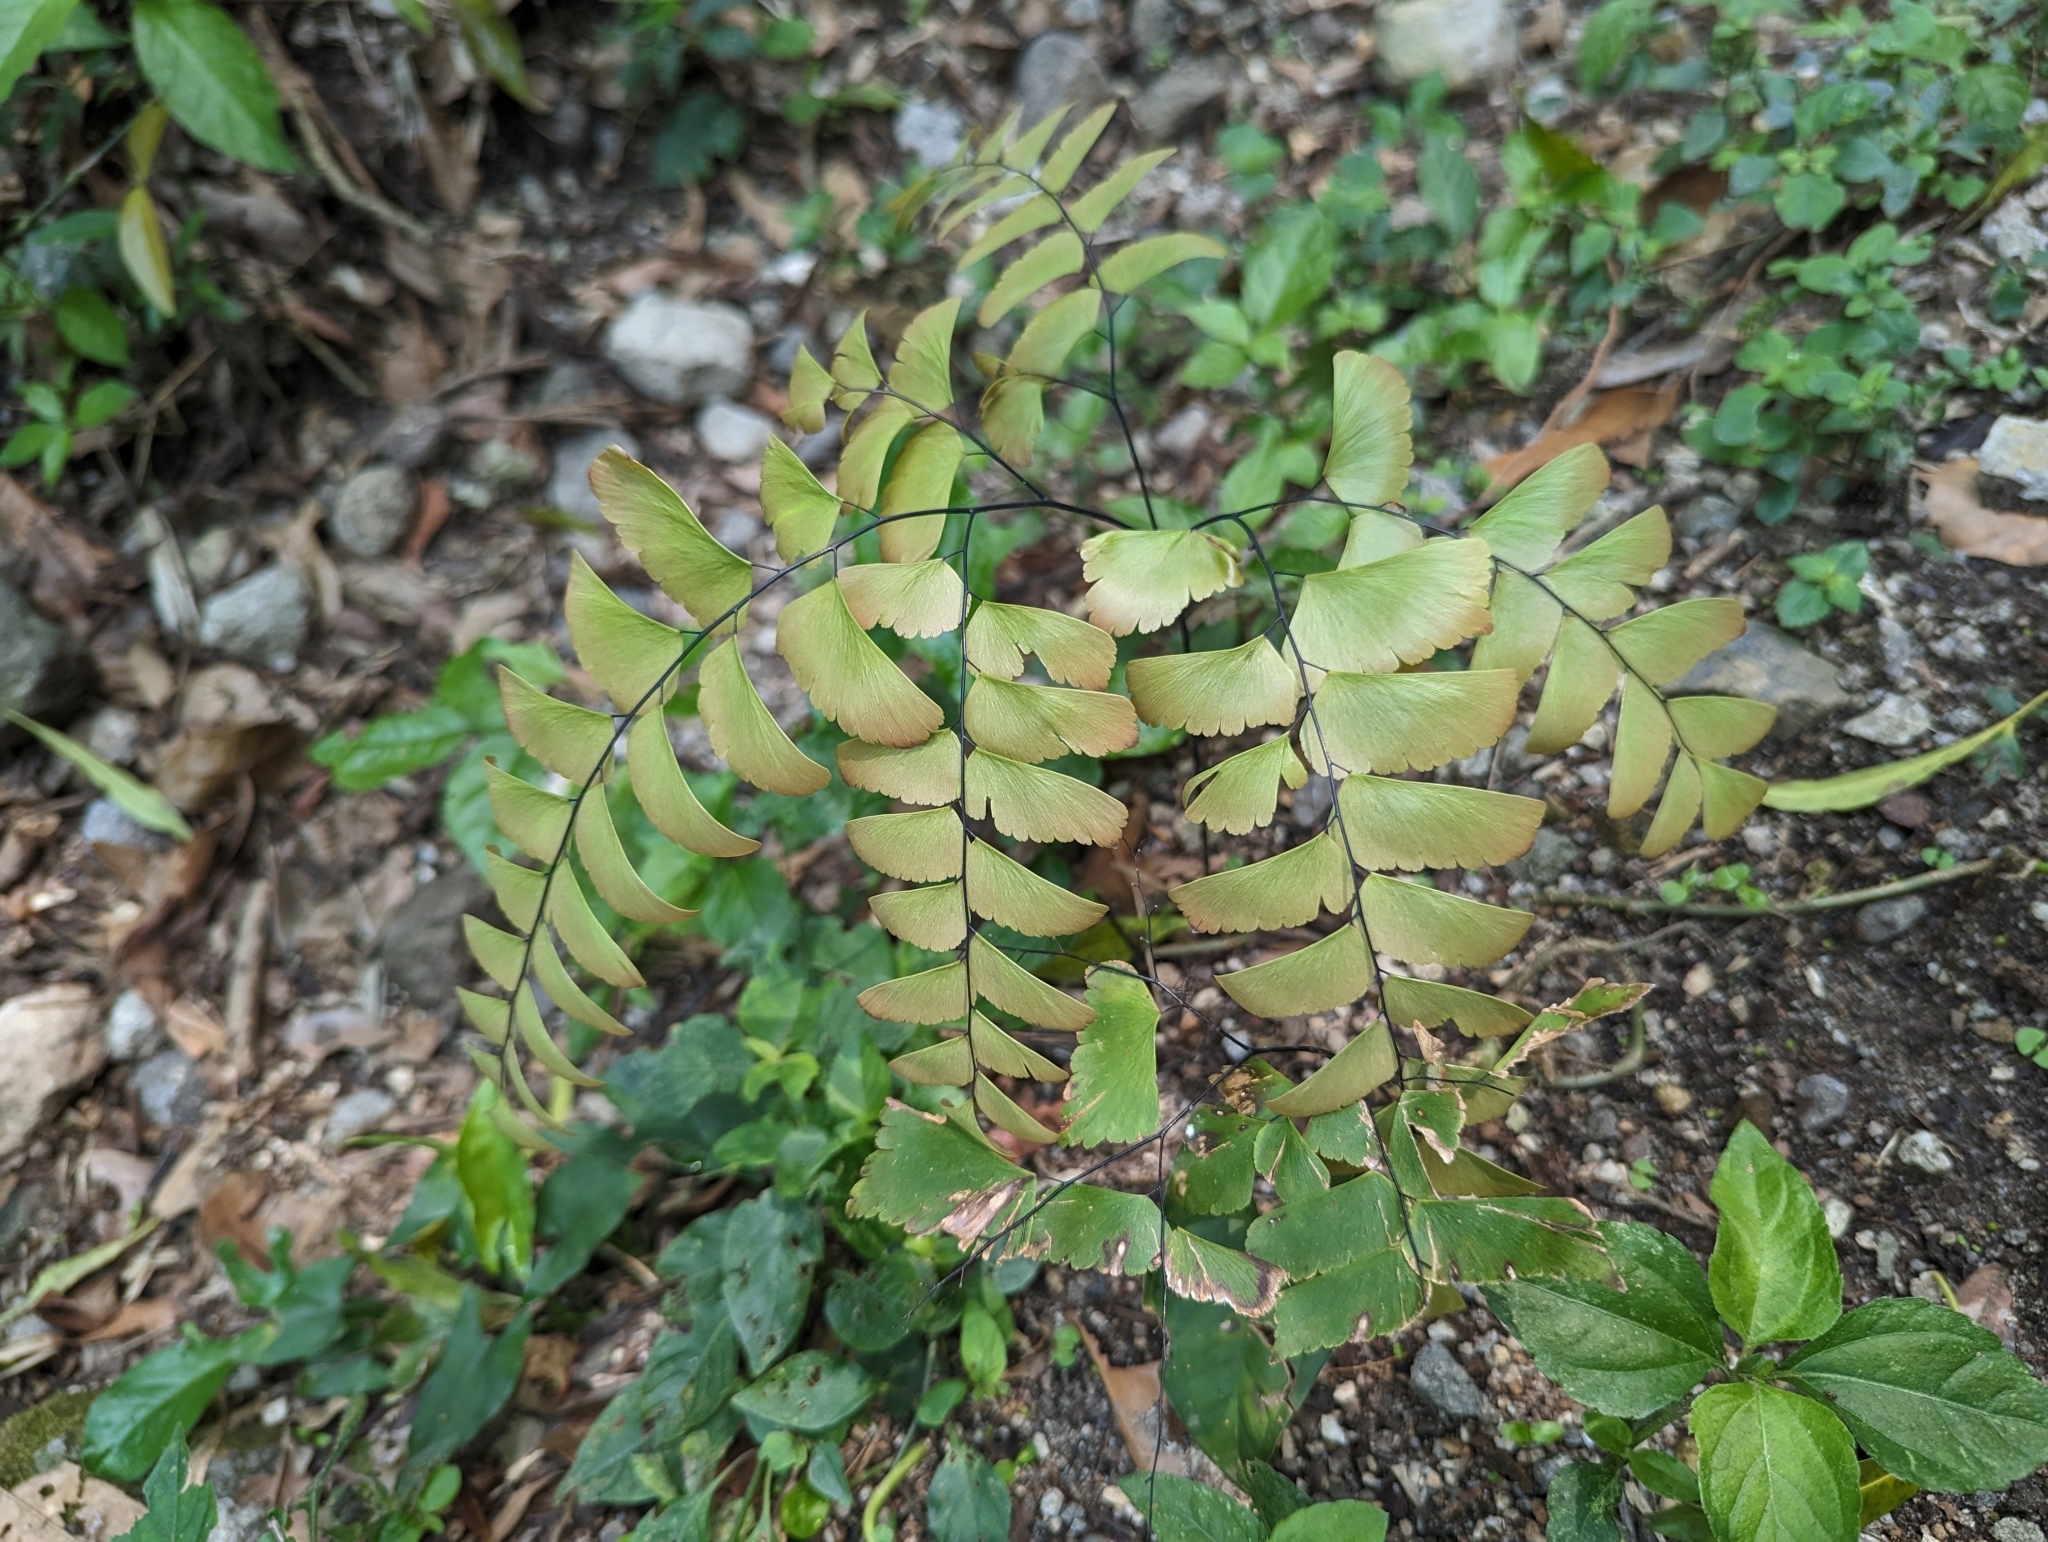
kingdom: Plantae
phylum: Tracheophyta
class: Polypodiopsida
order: Polypodiales
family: Pteridaceae
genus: Adiantum
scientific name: Adiantum trapeziforme
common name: Diamond maidenhair
